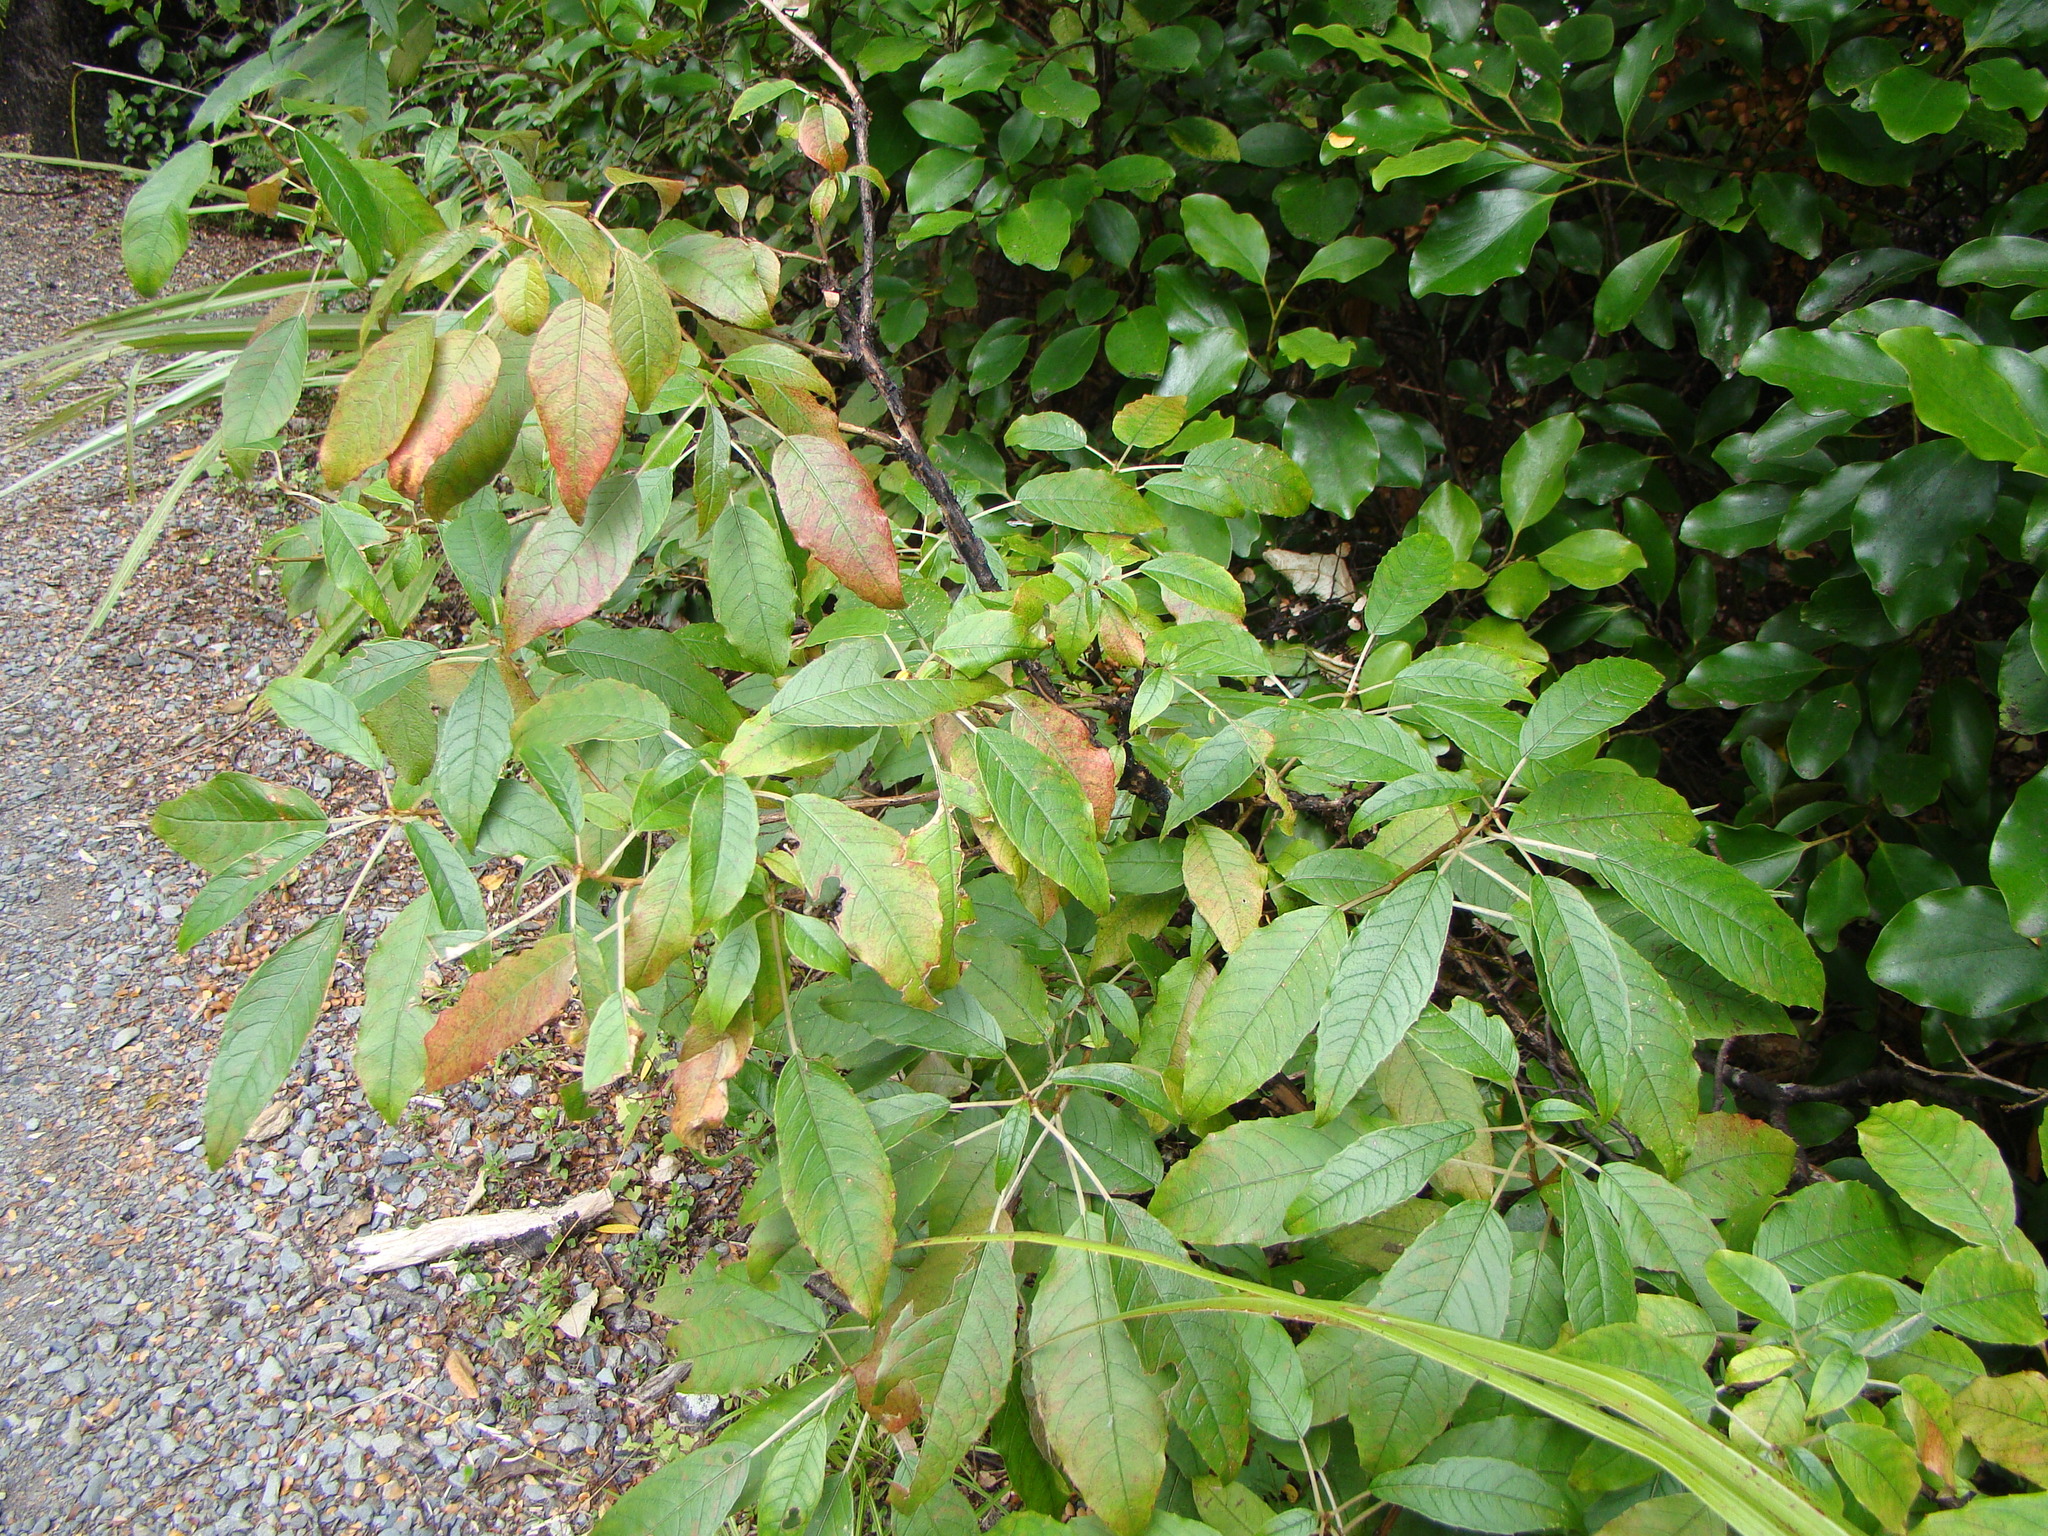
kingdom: Plantae
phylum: Tracheophyta
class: Magnoliopsida
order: Myrtales
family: Onagraceae
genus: Fuchsia
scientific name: Fuchsia excorticata
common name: Tree fuchsia
